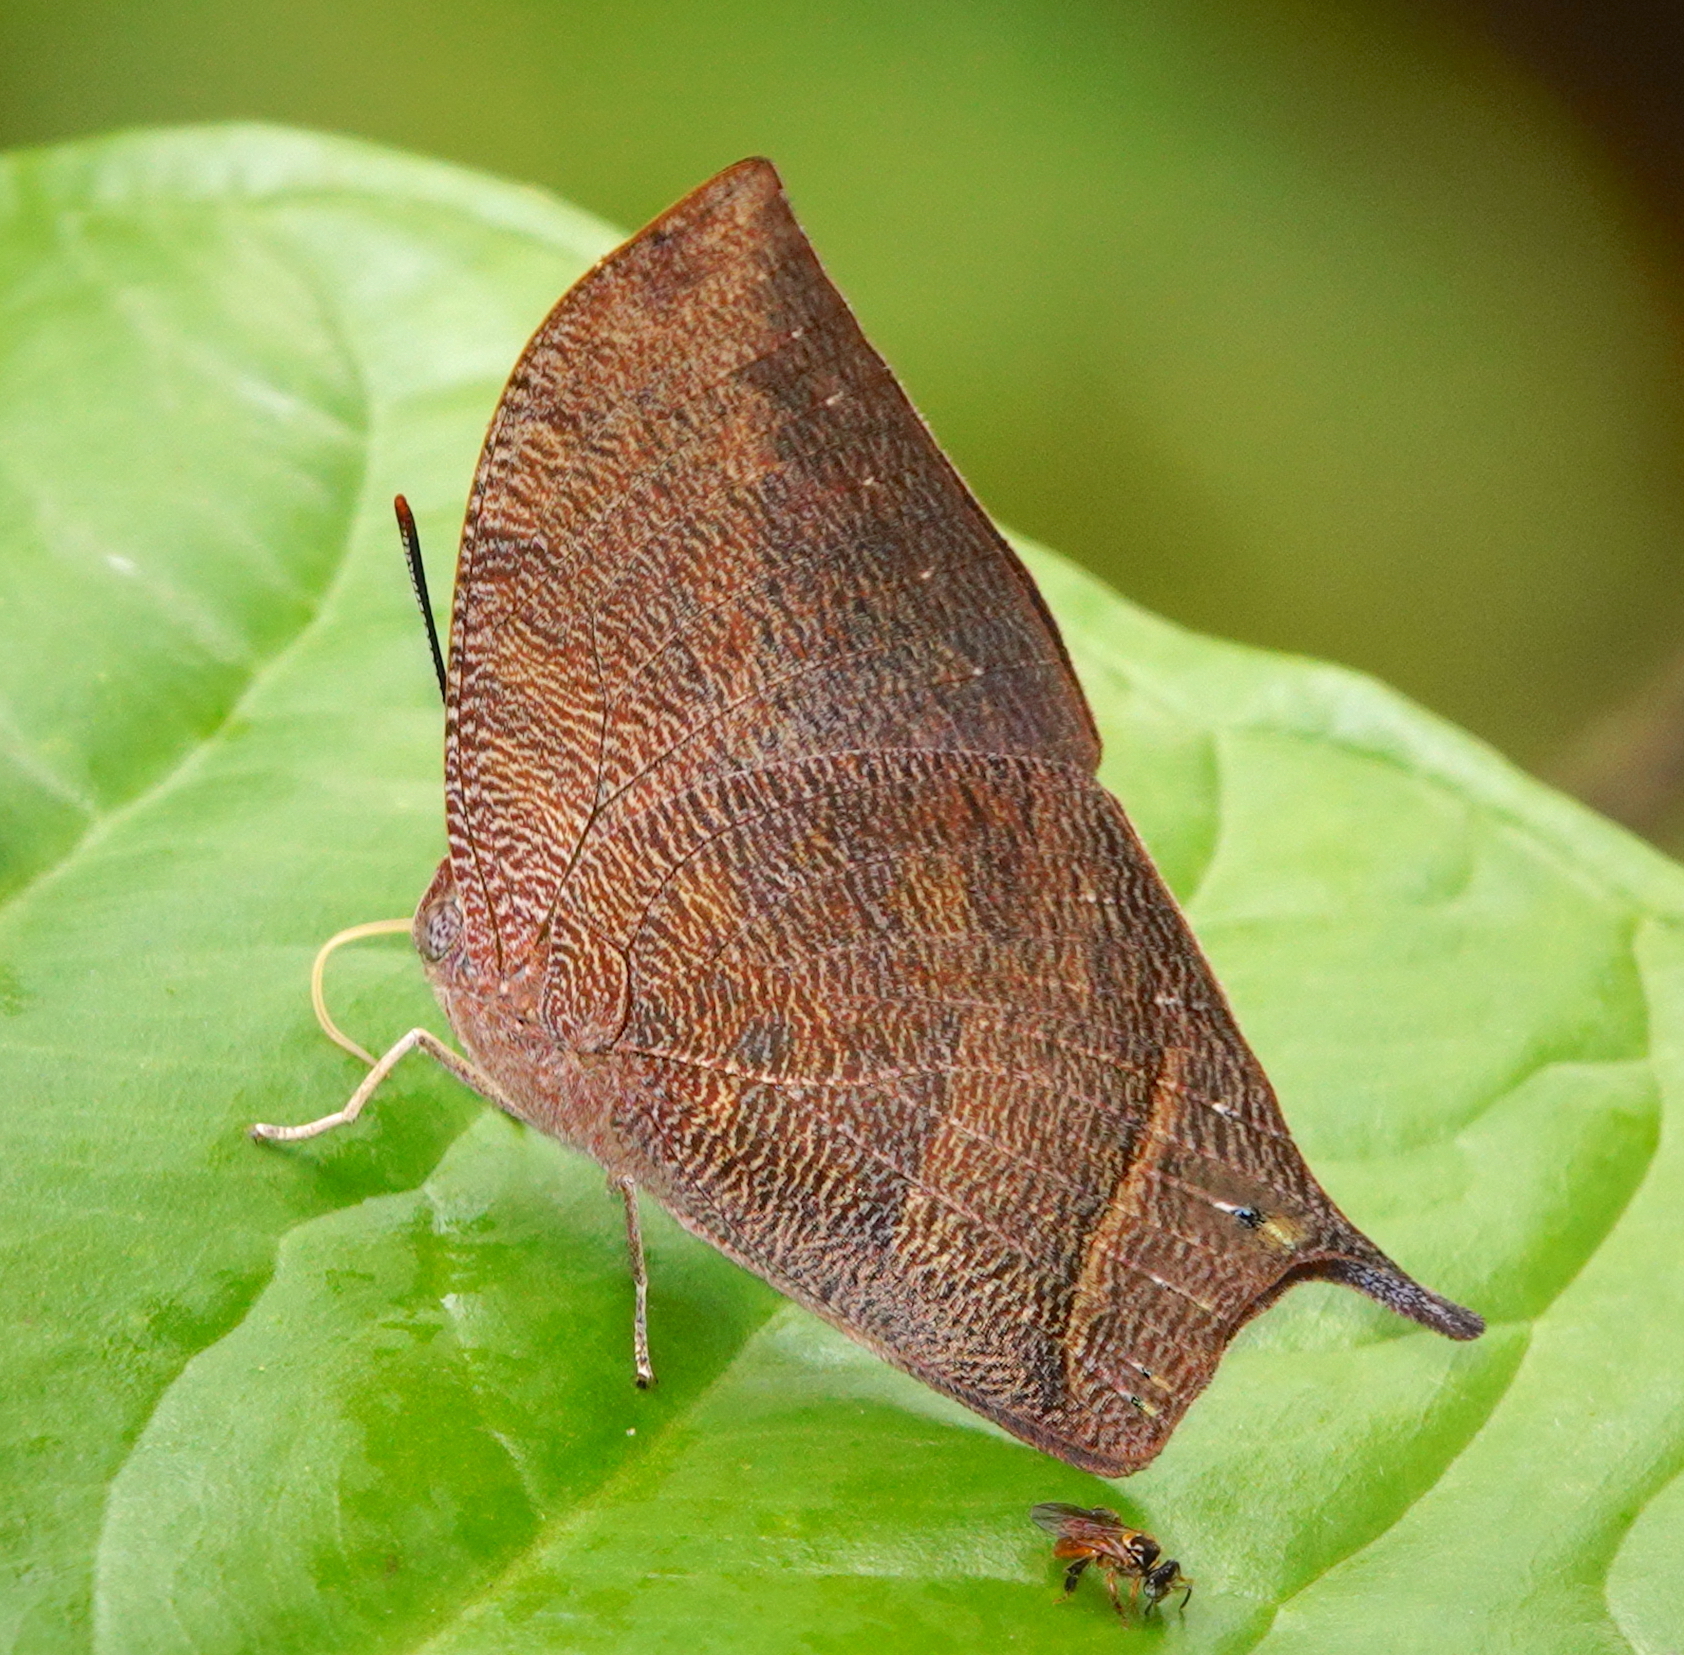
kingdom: Animalia
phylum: Arthropoda
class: Insecta
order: Lepidoptera
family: Nymphalidae
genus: Fountainea
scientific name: Fountainea
